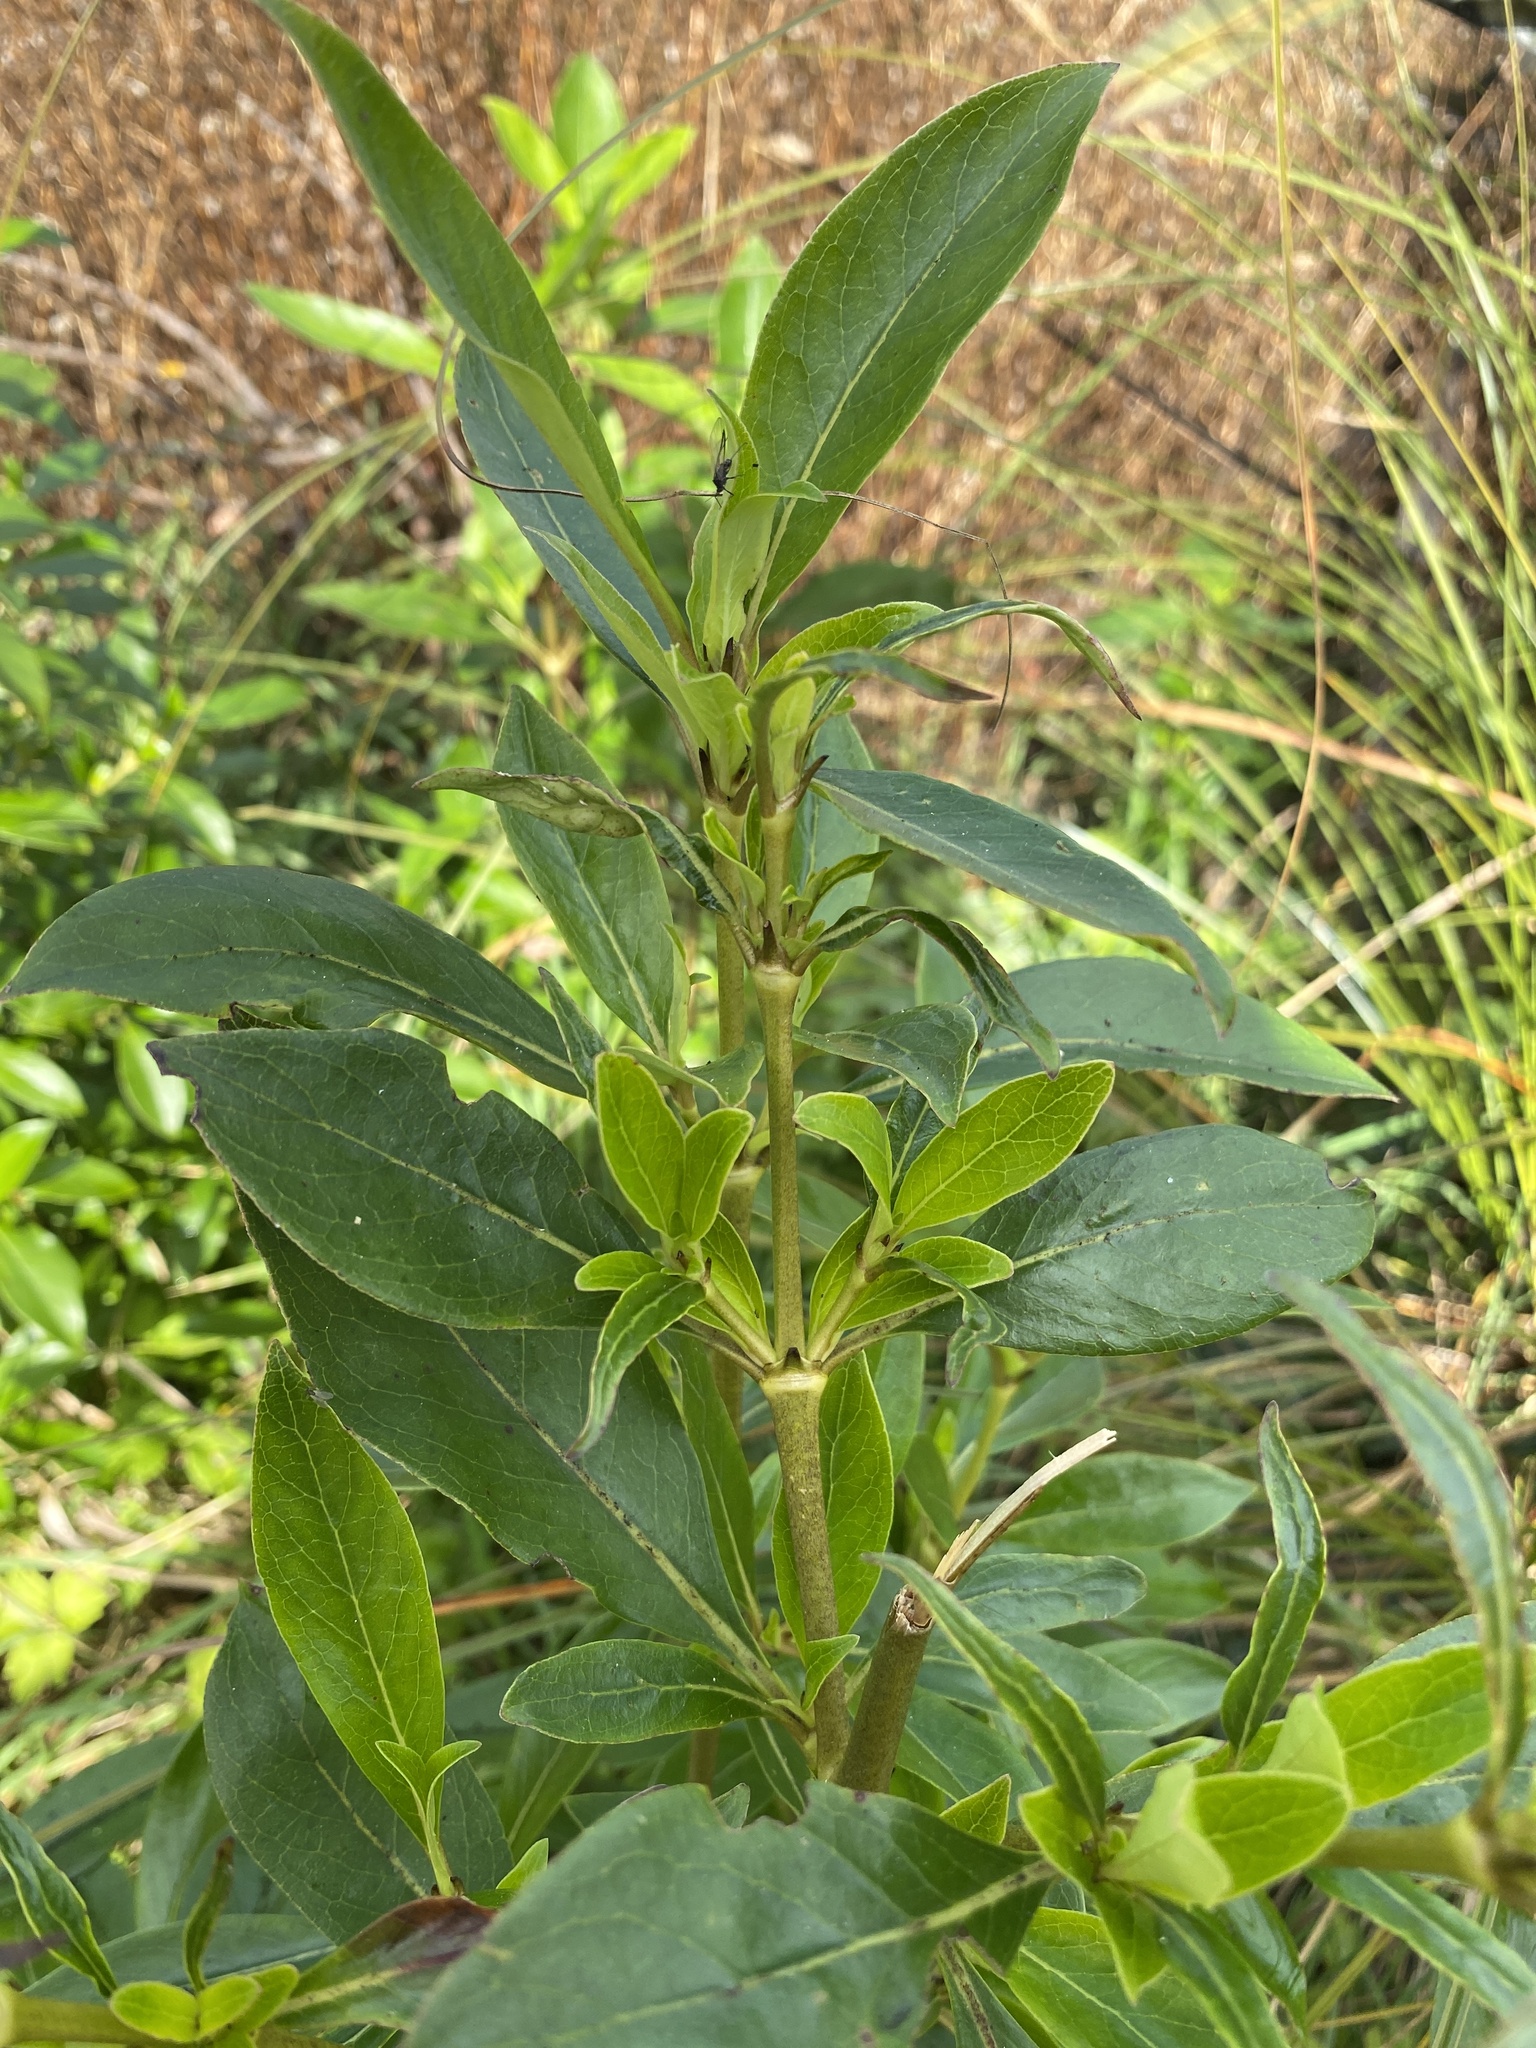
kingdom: Plantae
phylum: Tracheophyta
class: Magnoliopsida
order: Gentianales
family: Rubiaceae
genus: Coprosma
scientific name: Coprosma robusta
